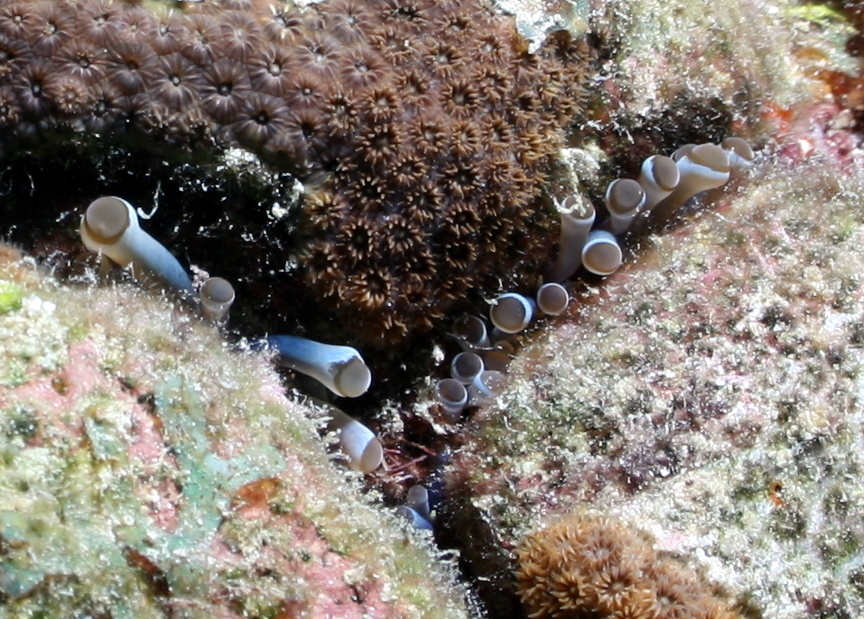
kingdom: Animalia
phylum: Cnidaria
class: Anthozoa
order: Actiniaria
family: Aliciidae
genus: Lebrunia
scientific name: Lebrunia coralligens
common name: Hidden anemone
